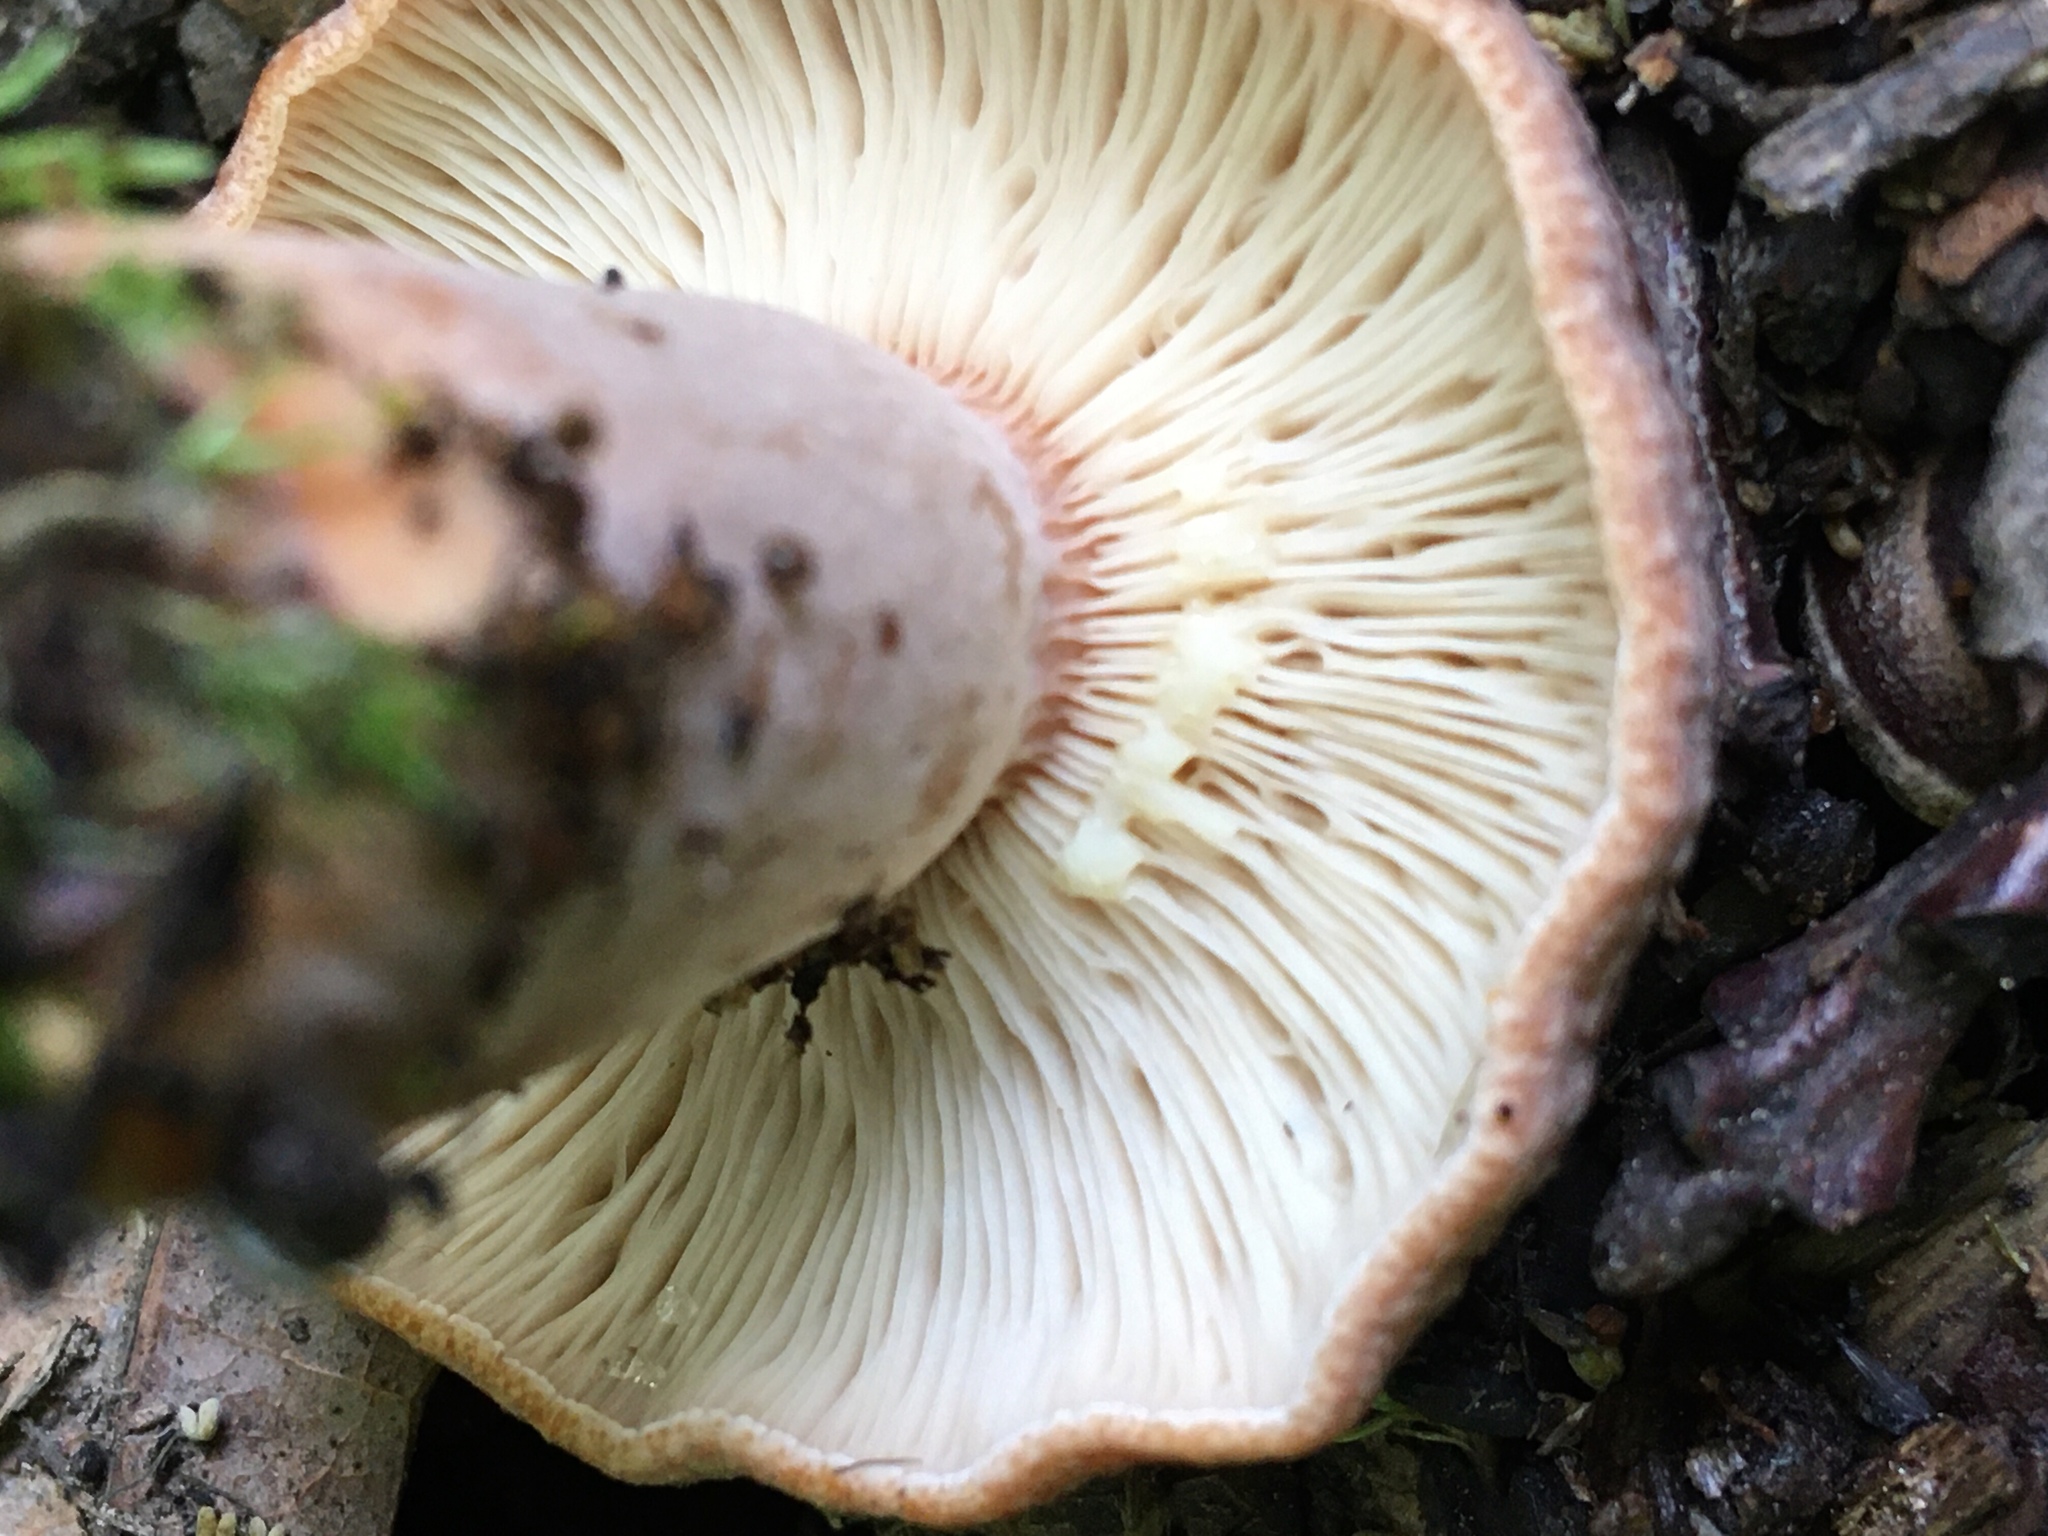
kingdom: Fungi
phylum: Basidiomycota
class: Agaricomycetes
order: Russulales
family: Russulaceae
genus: Lactarius
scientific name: Lactarius quietus
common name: Oak milk-cap
